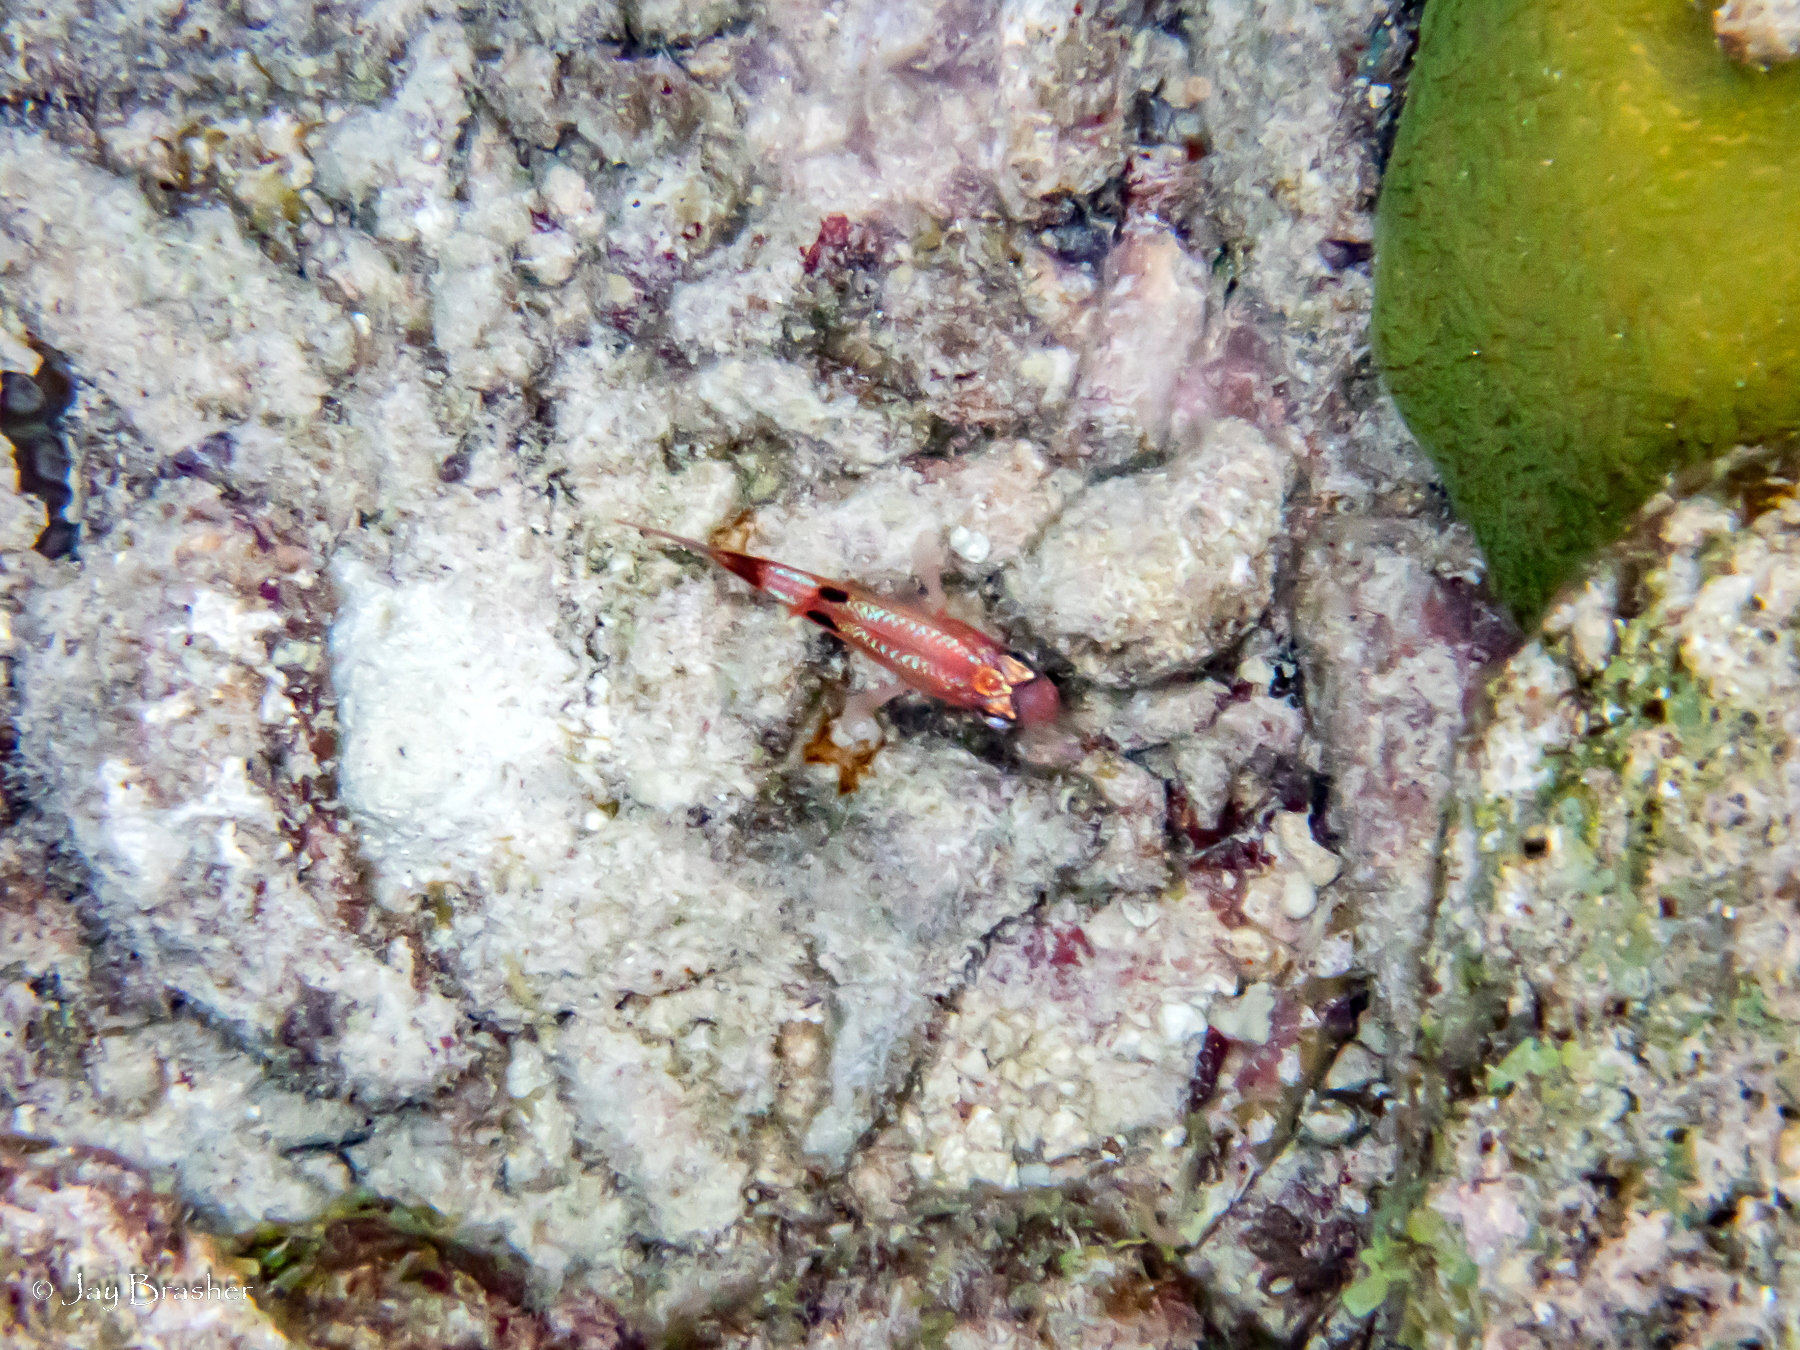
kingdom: Animalia
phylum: Chordata
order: Perciformes
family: Apogonidae
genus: Apogon
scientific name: Apogon townsendi
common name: Belted cardinalfish
